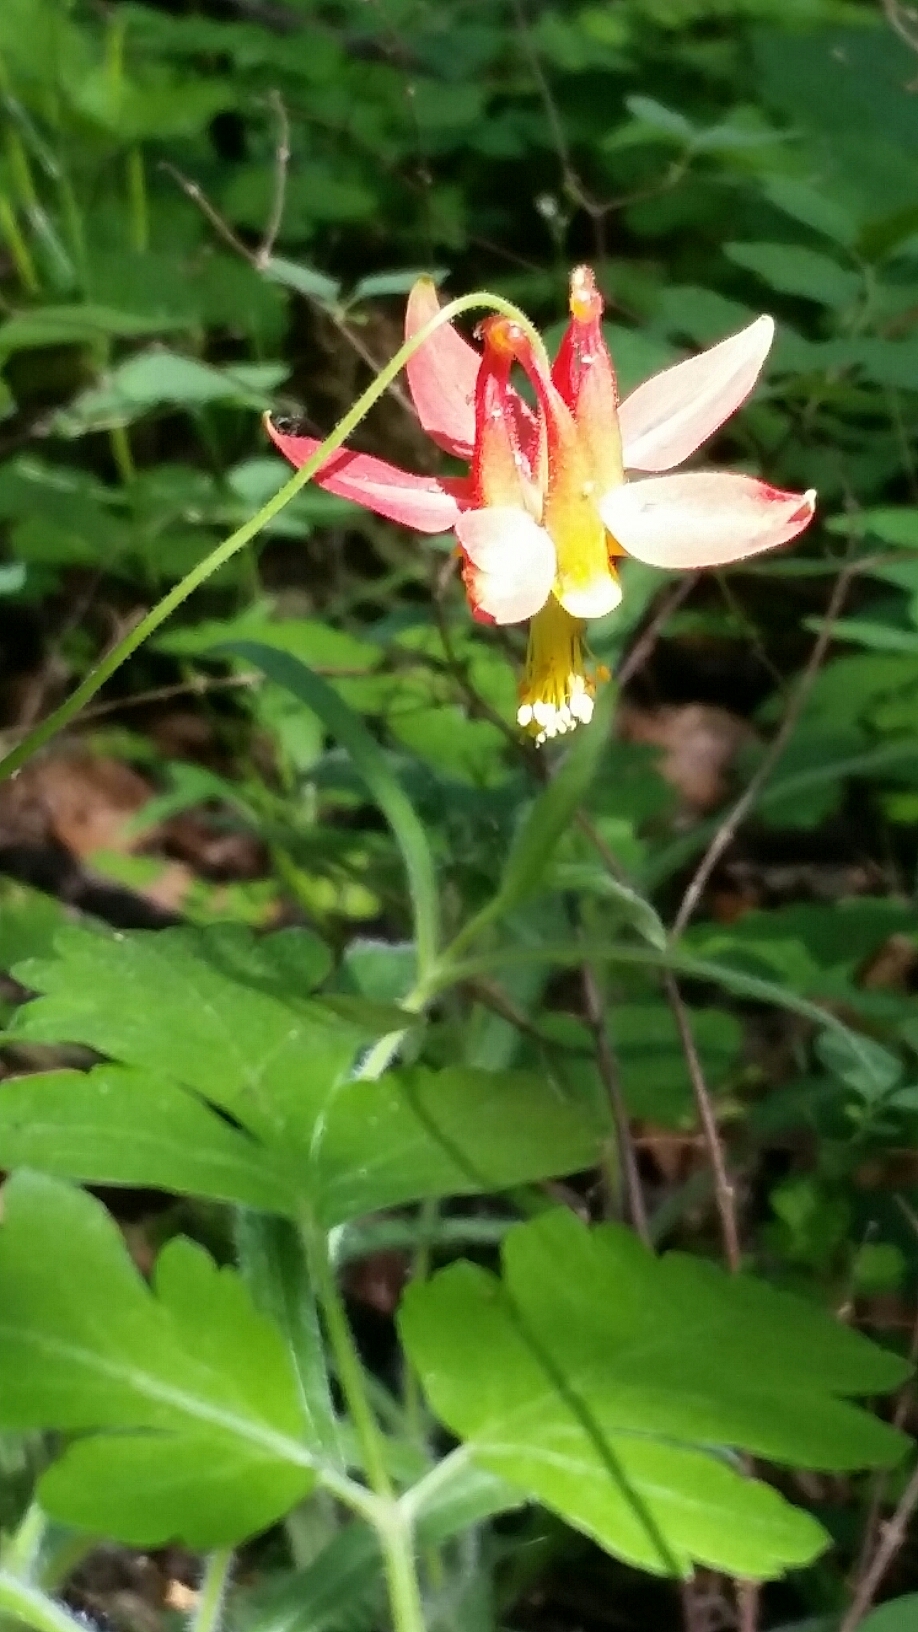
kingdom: Plantae
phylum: Tracheophyta
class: Magnoliopsida
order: Ranunculales
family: Ranunculaceae
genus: Aquilegia
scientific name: Aquilegia formosa
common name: Sitka columbine
